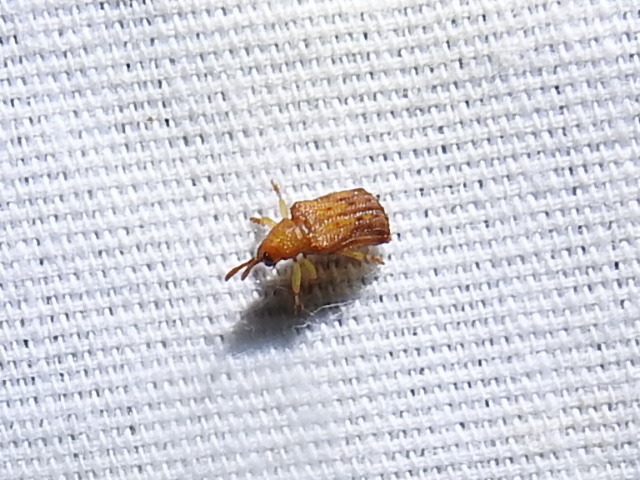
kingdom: Animalia
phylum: Arthropoda
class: Insecta
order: Coleoptera
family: Chrysomelidae
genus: Baliosus
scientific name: Baliosus nervosus
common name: Basswood leaf miner
